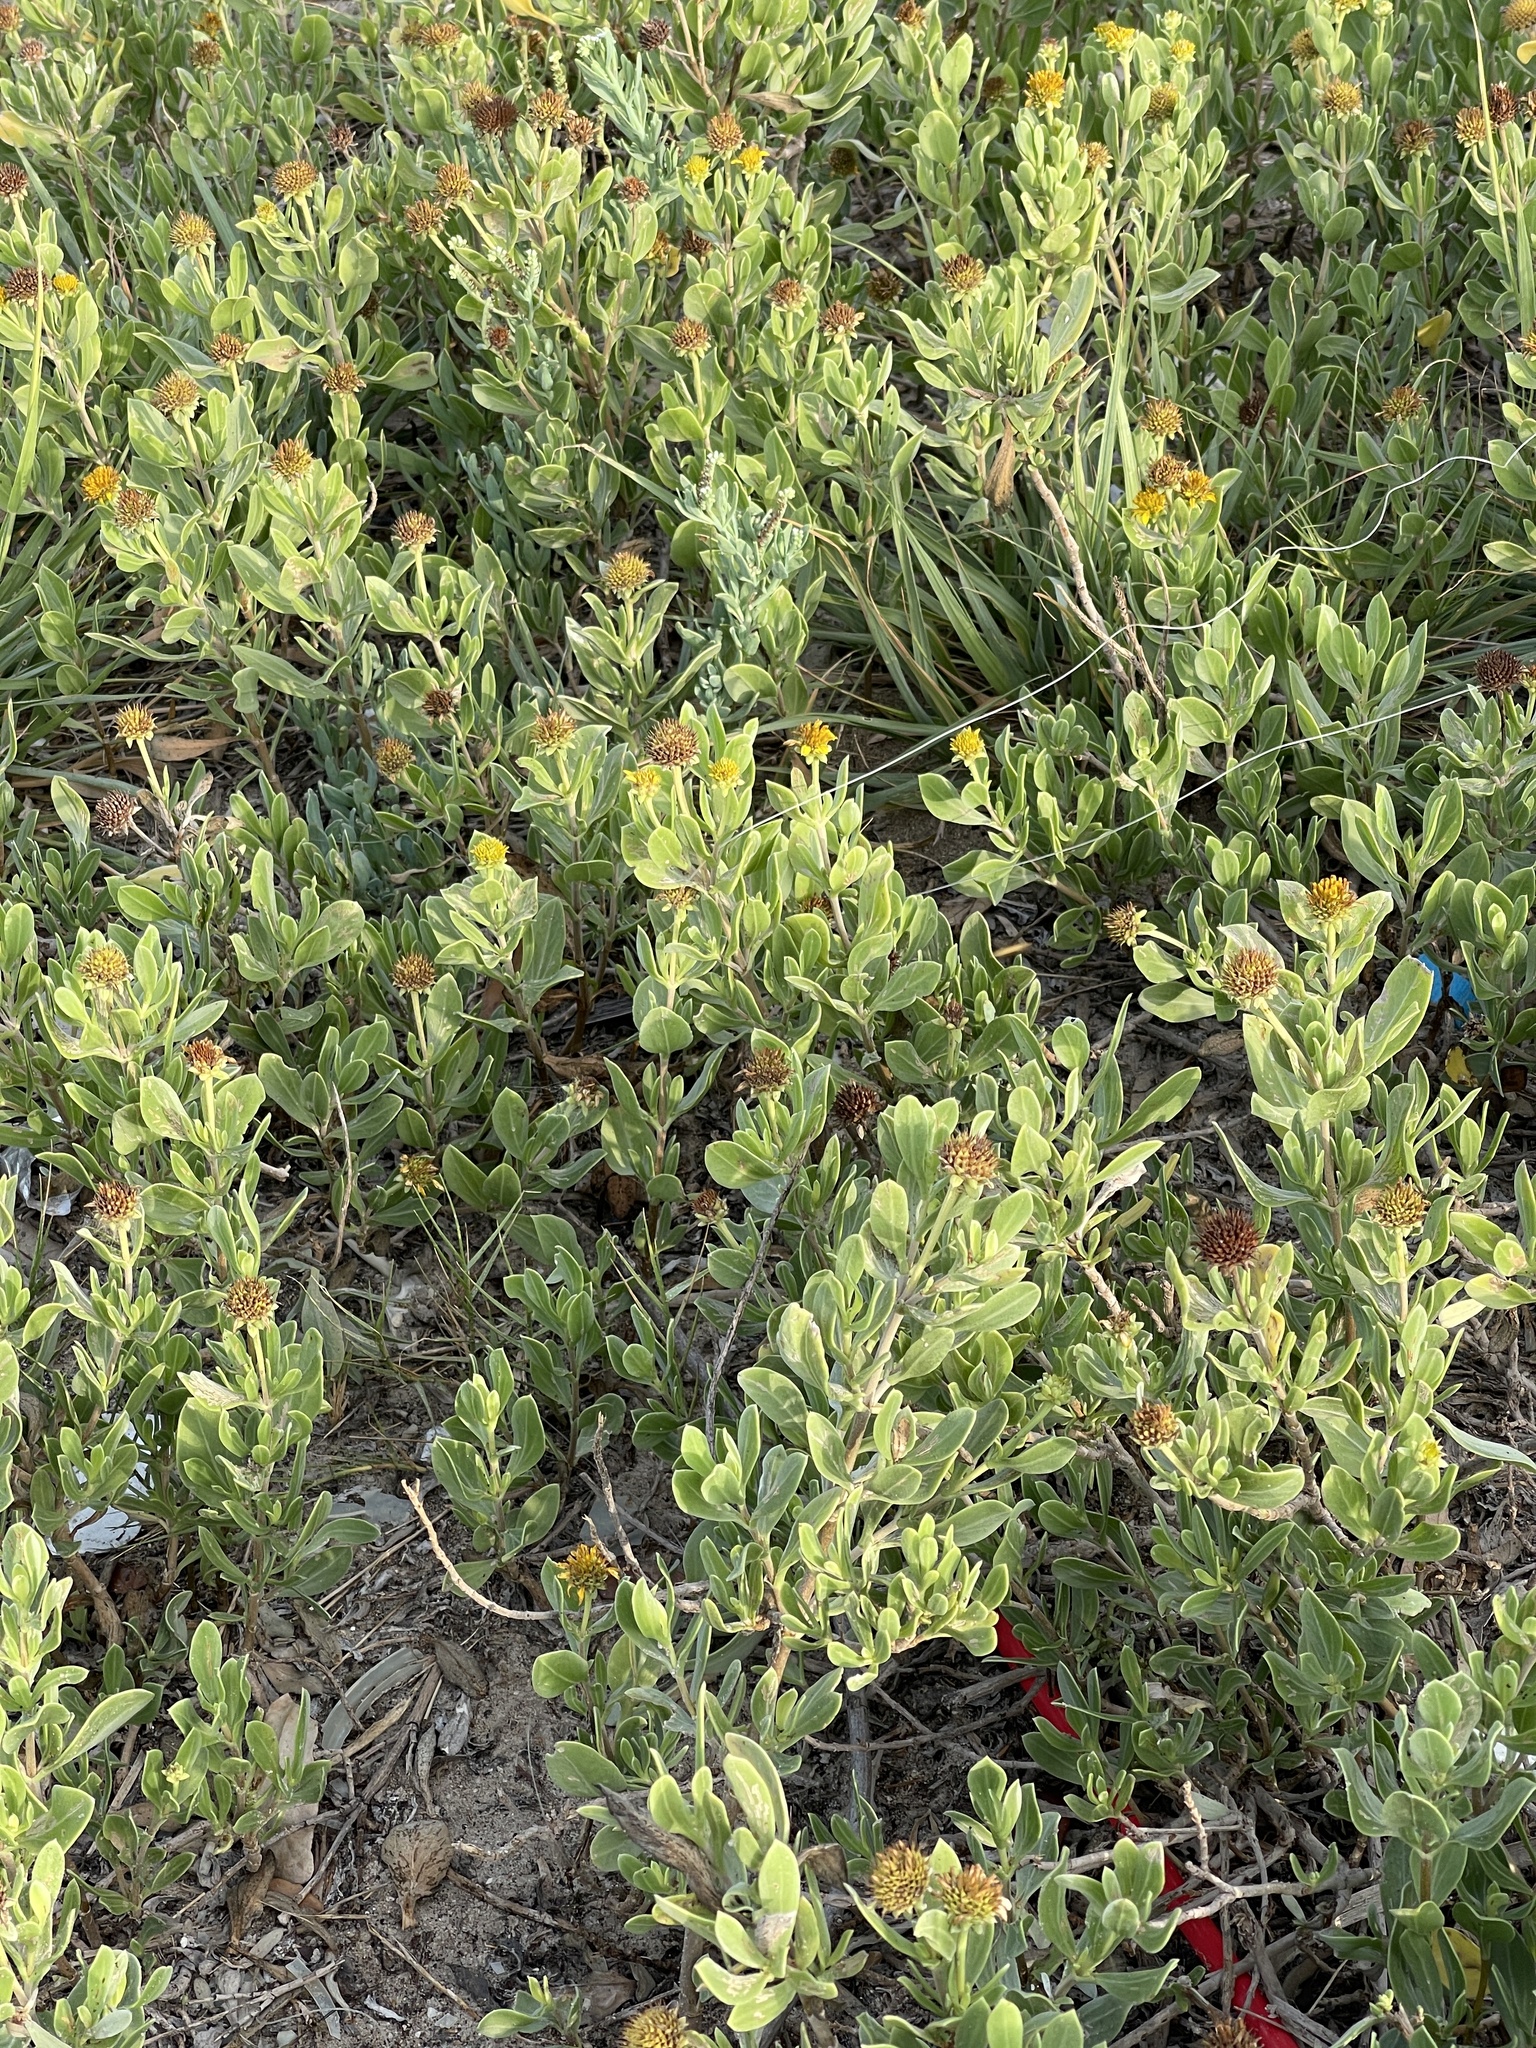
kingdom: Plantae
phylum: Tracheophyta
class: Magnoliopsida
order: Asterales
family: Asteraceae
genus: Borrichia
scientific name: Borrichia frutescens
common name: Sea oxeye
